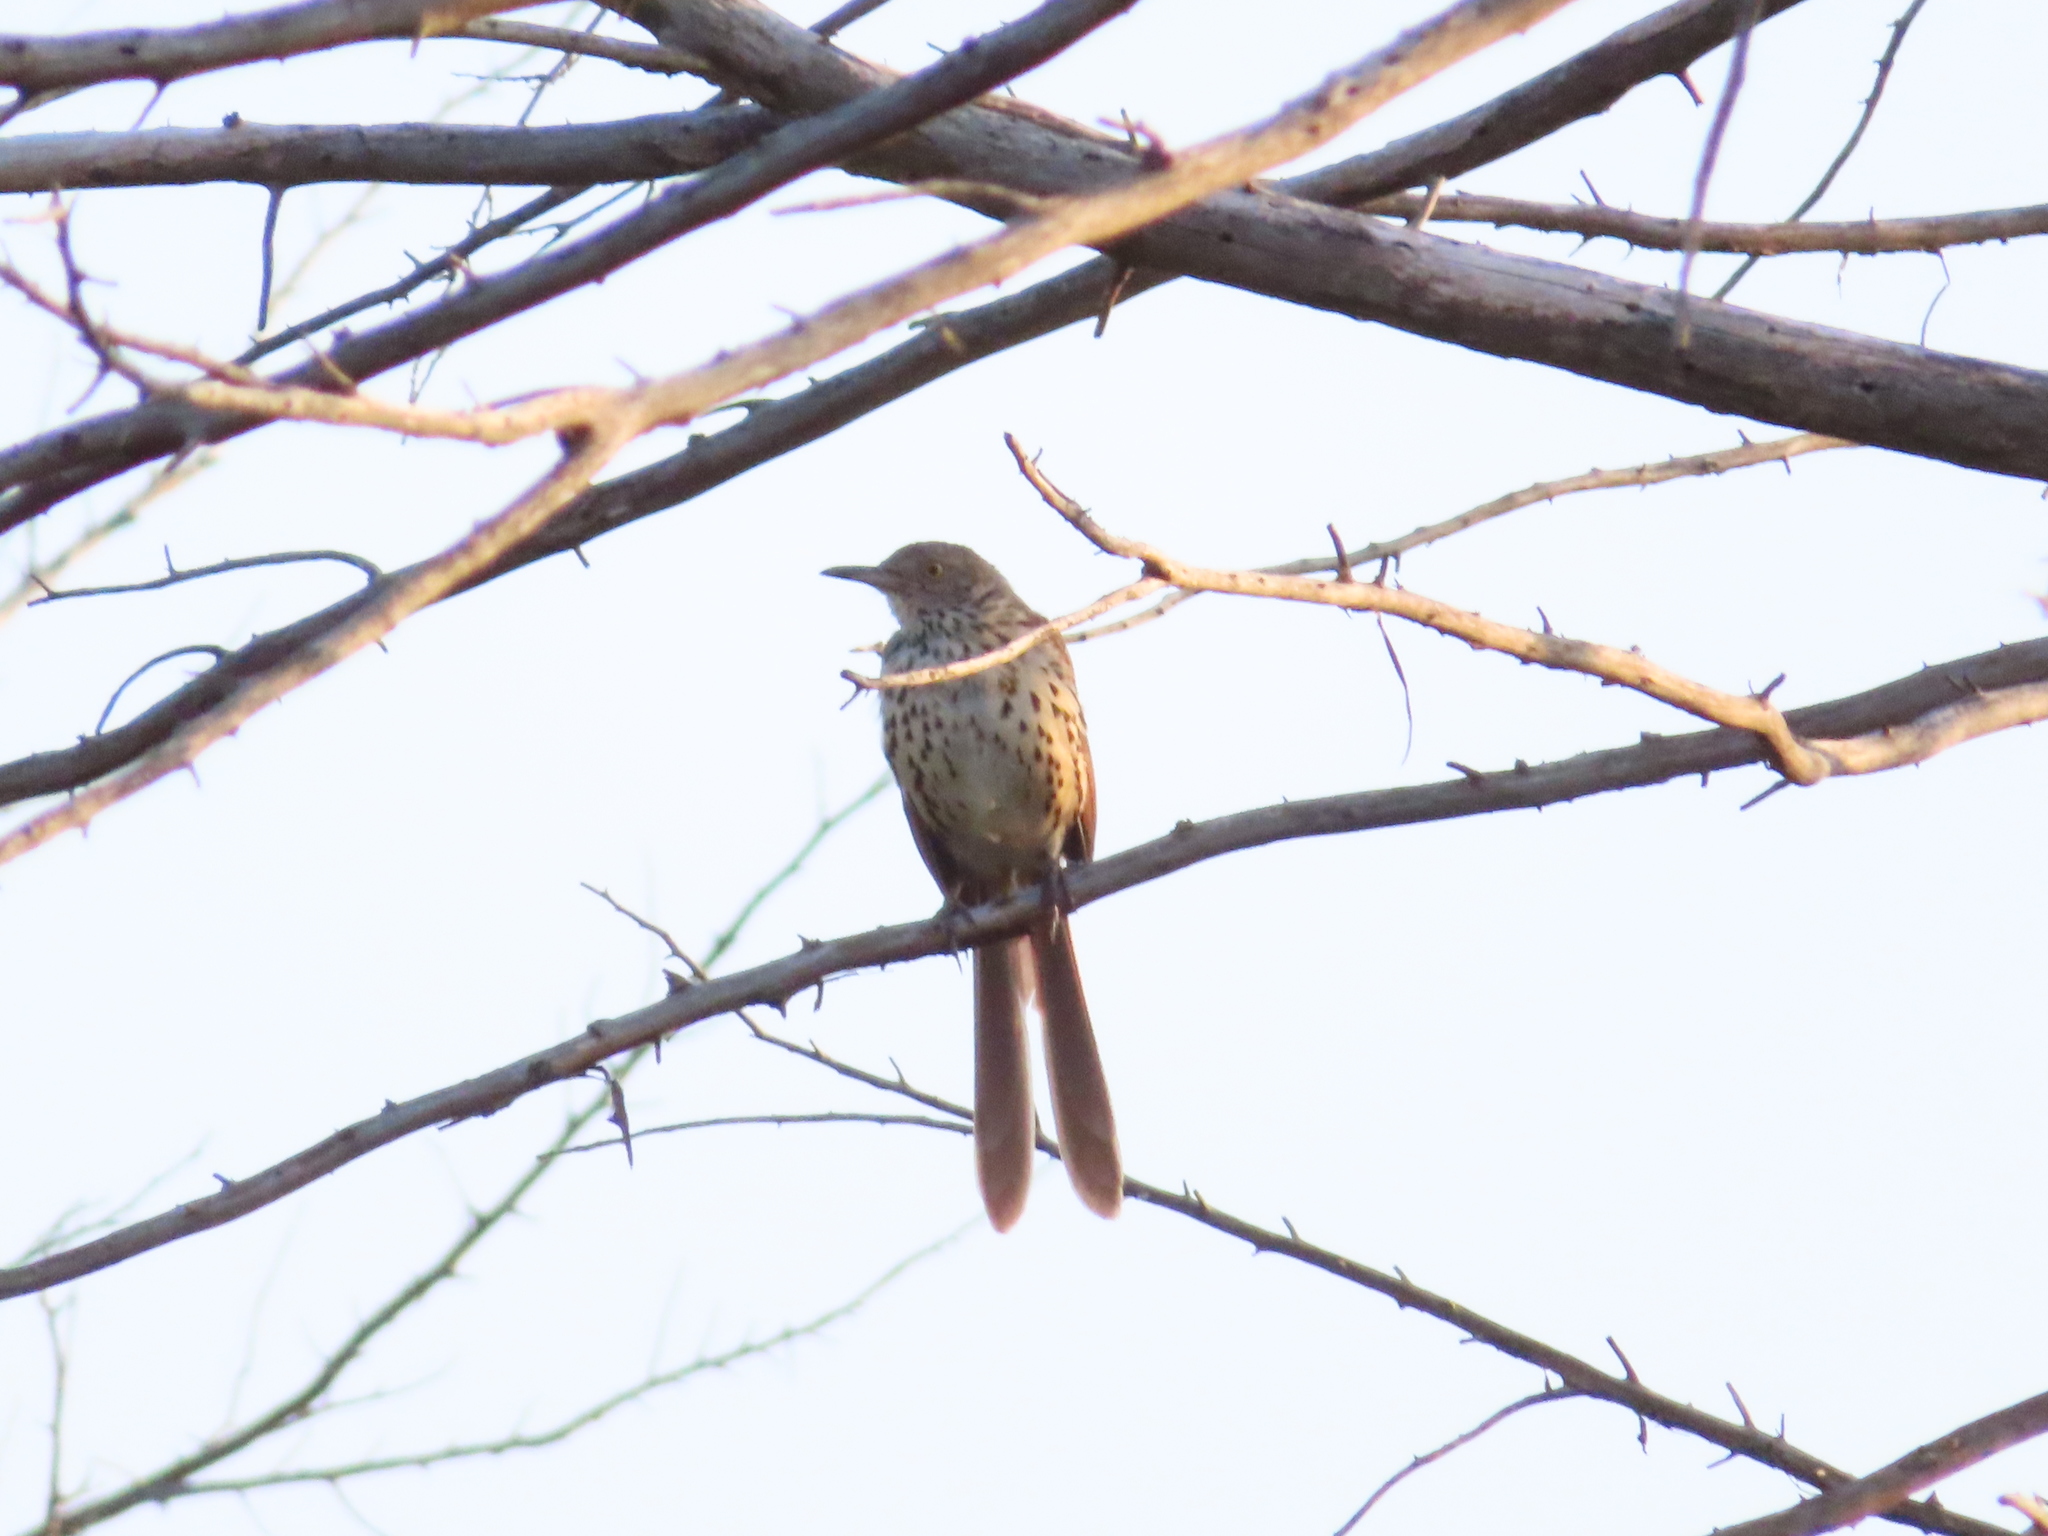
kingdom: Animalia
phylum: Chordata
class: Aves
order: Passeriformes
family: Mimidae
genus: Toxostoma
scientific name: Toxostoma rufum
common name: Brown thrasher
